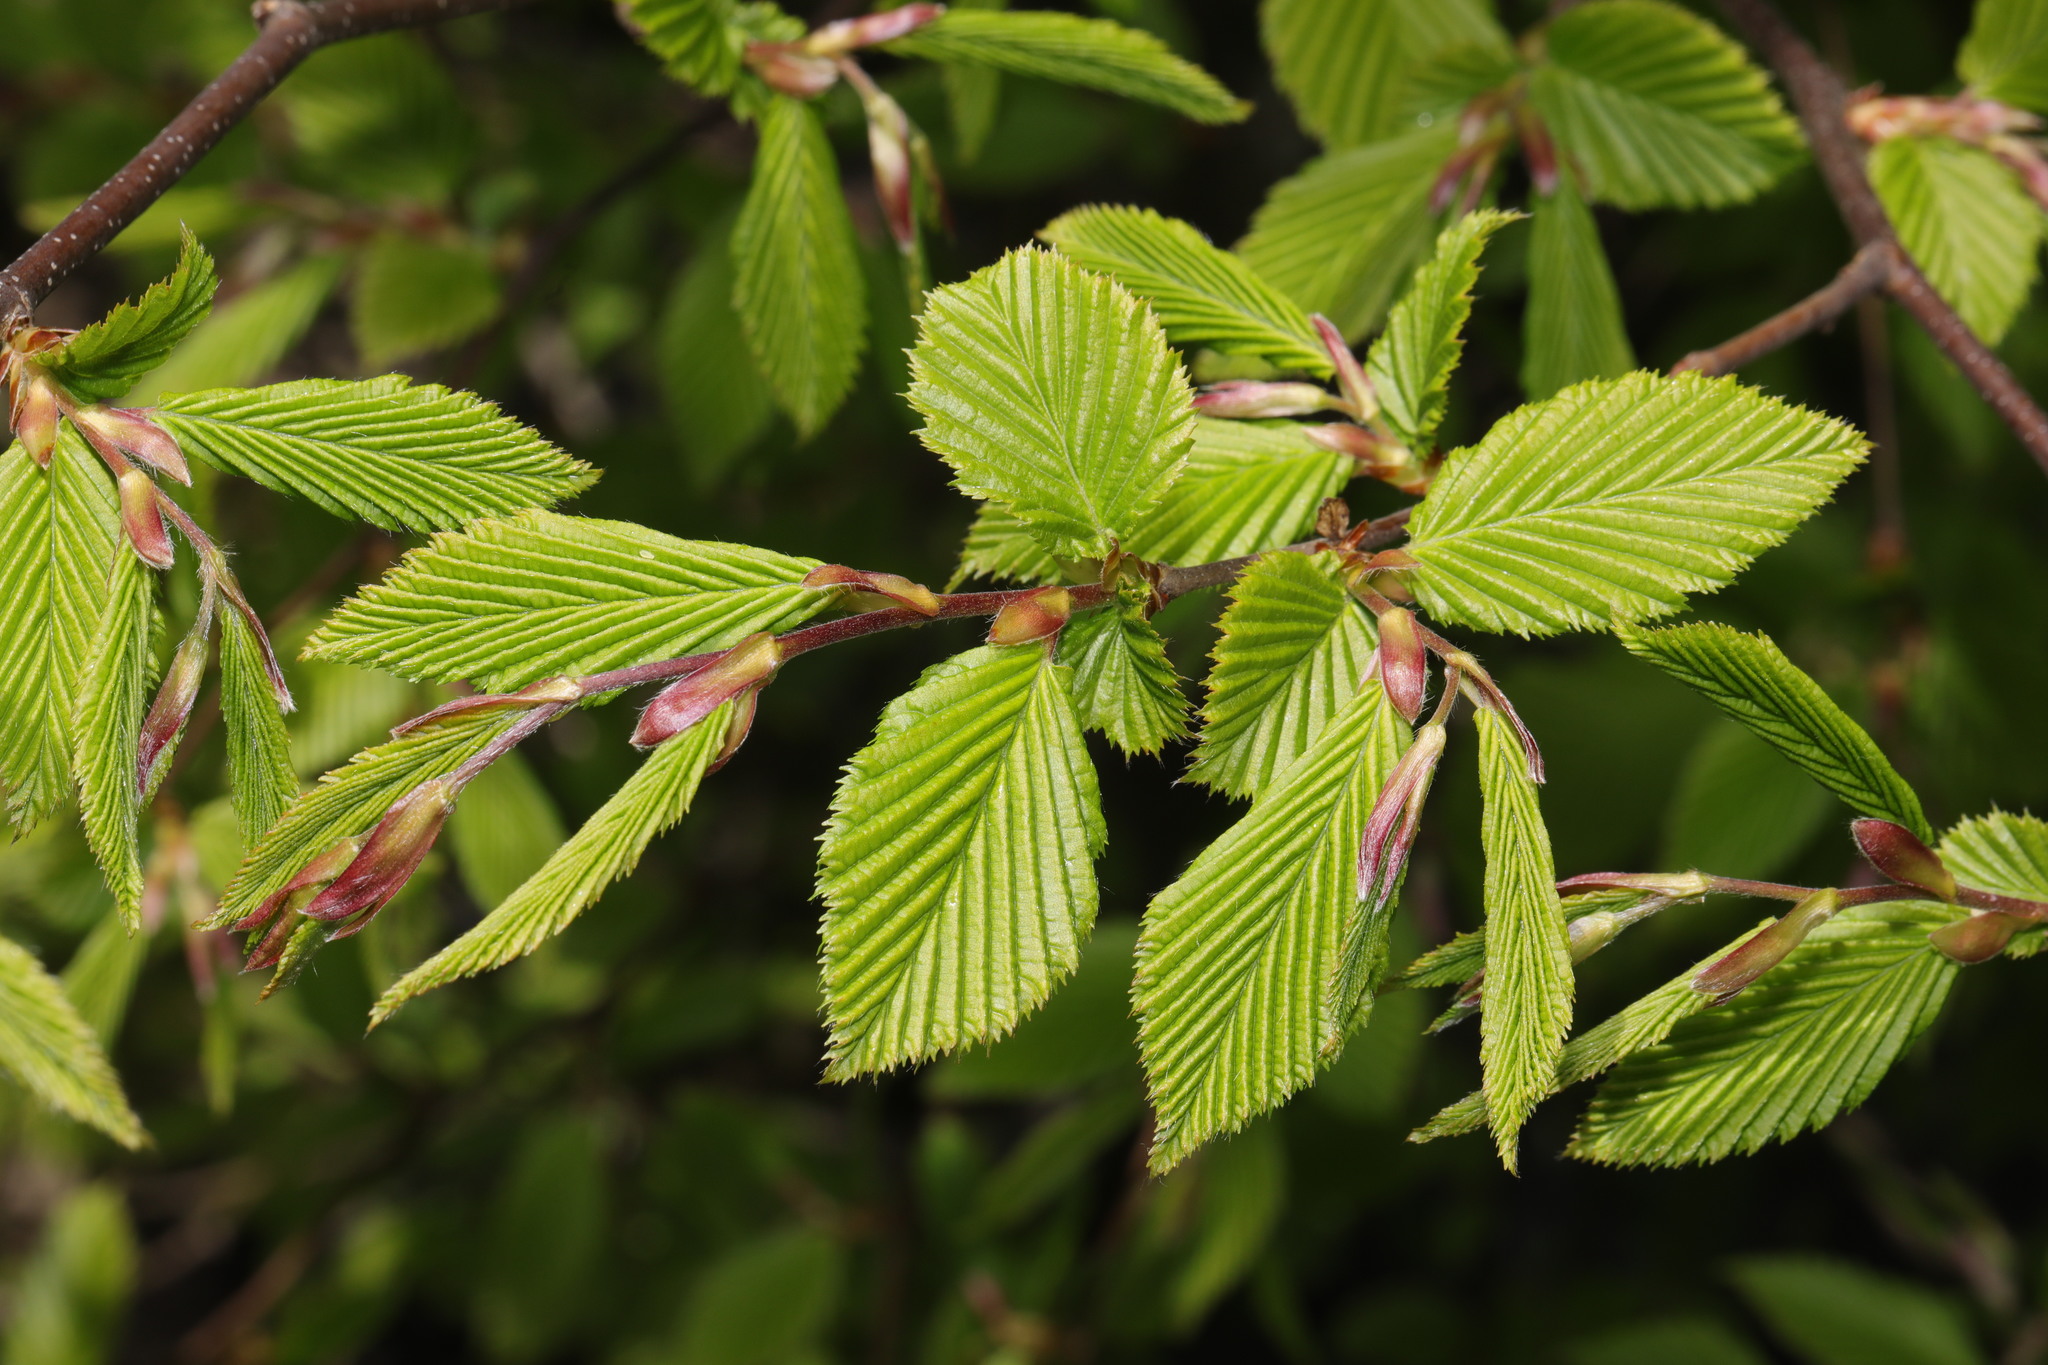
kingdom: Plantae
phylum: Tracheophyta
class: Magnoliopsida
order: Fagales
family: Betulaceae
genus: Carpinus
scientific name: Carpinus betulus
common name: Hornbeam
